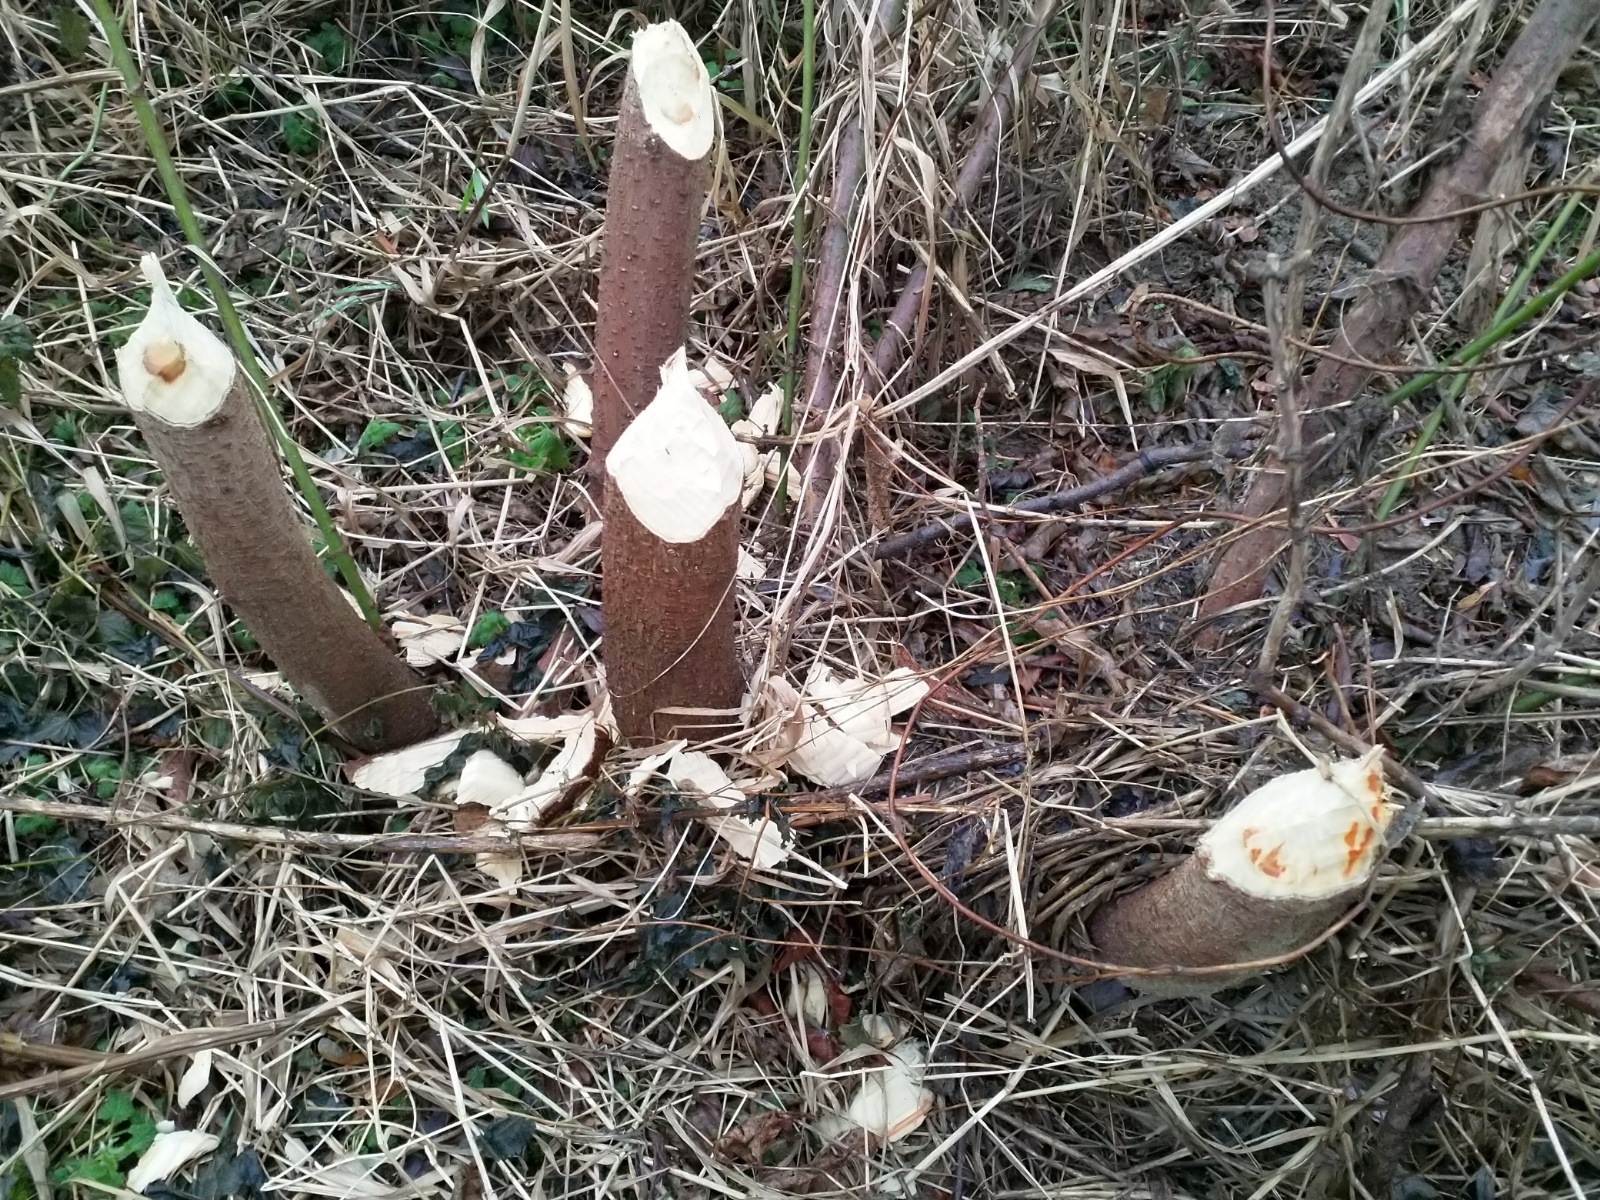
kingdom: Animalia
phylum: Chordata
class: Mammalia
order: Rodentia
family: Castoridae
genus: Castor
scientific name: Castor fiber
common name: Eurasian beaver
